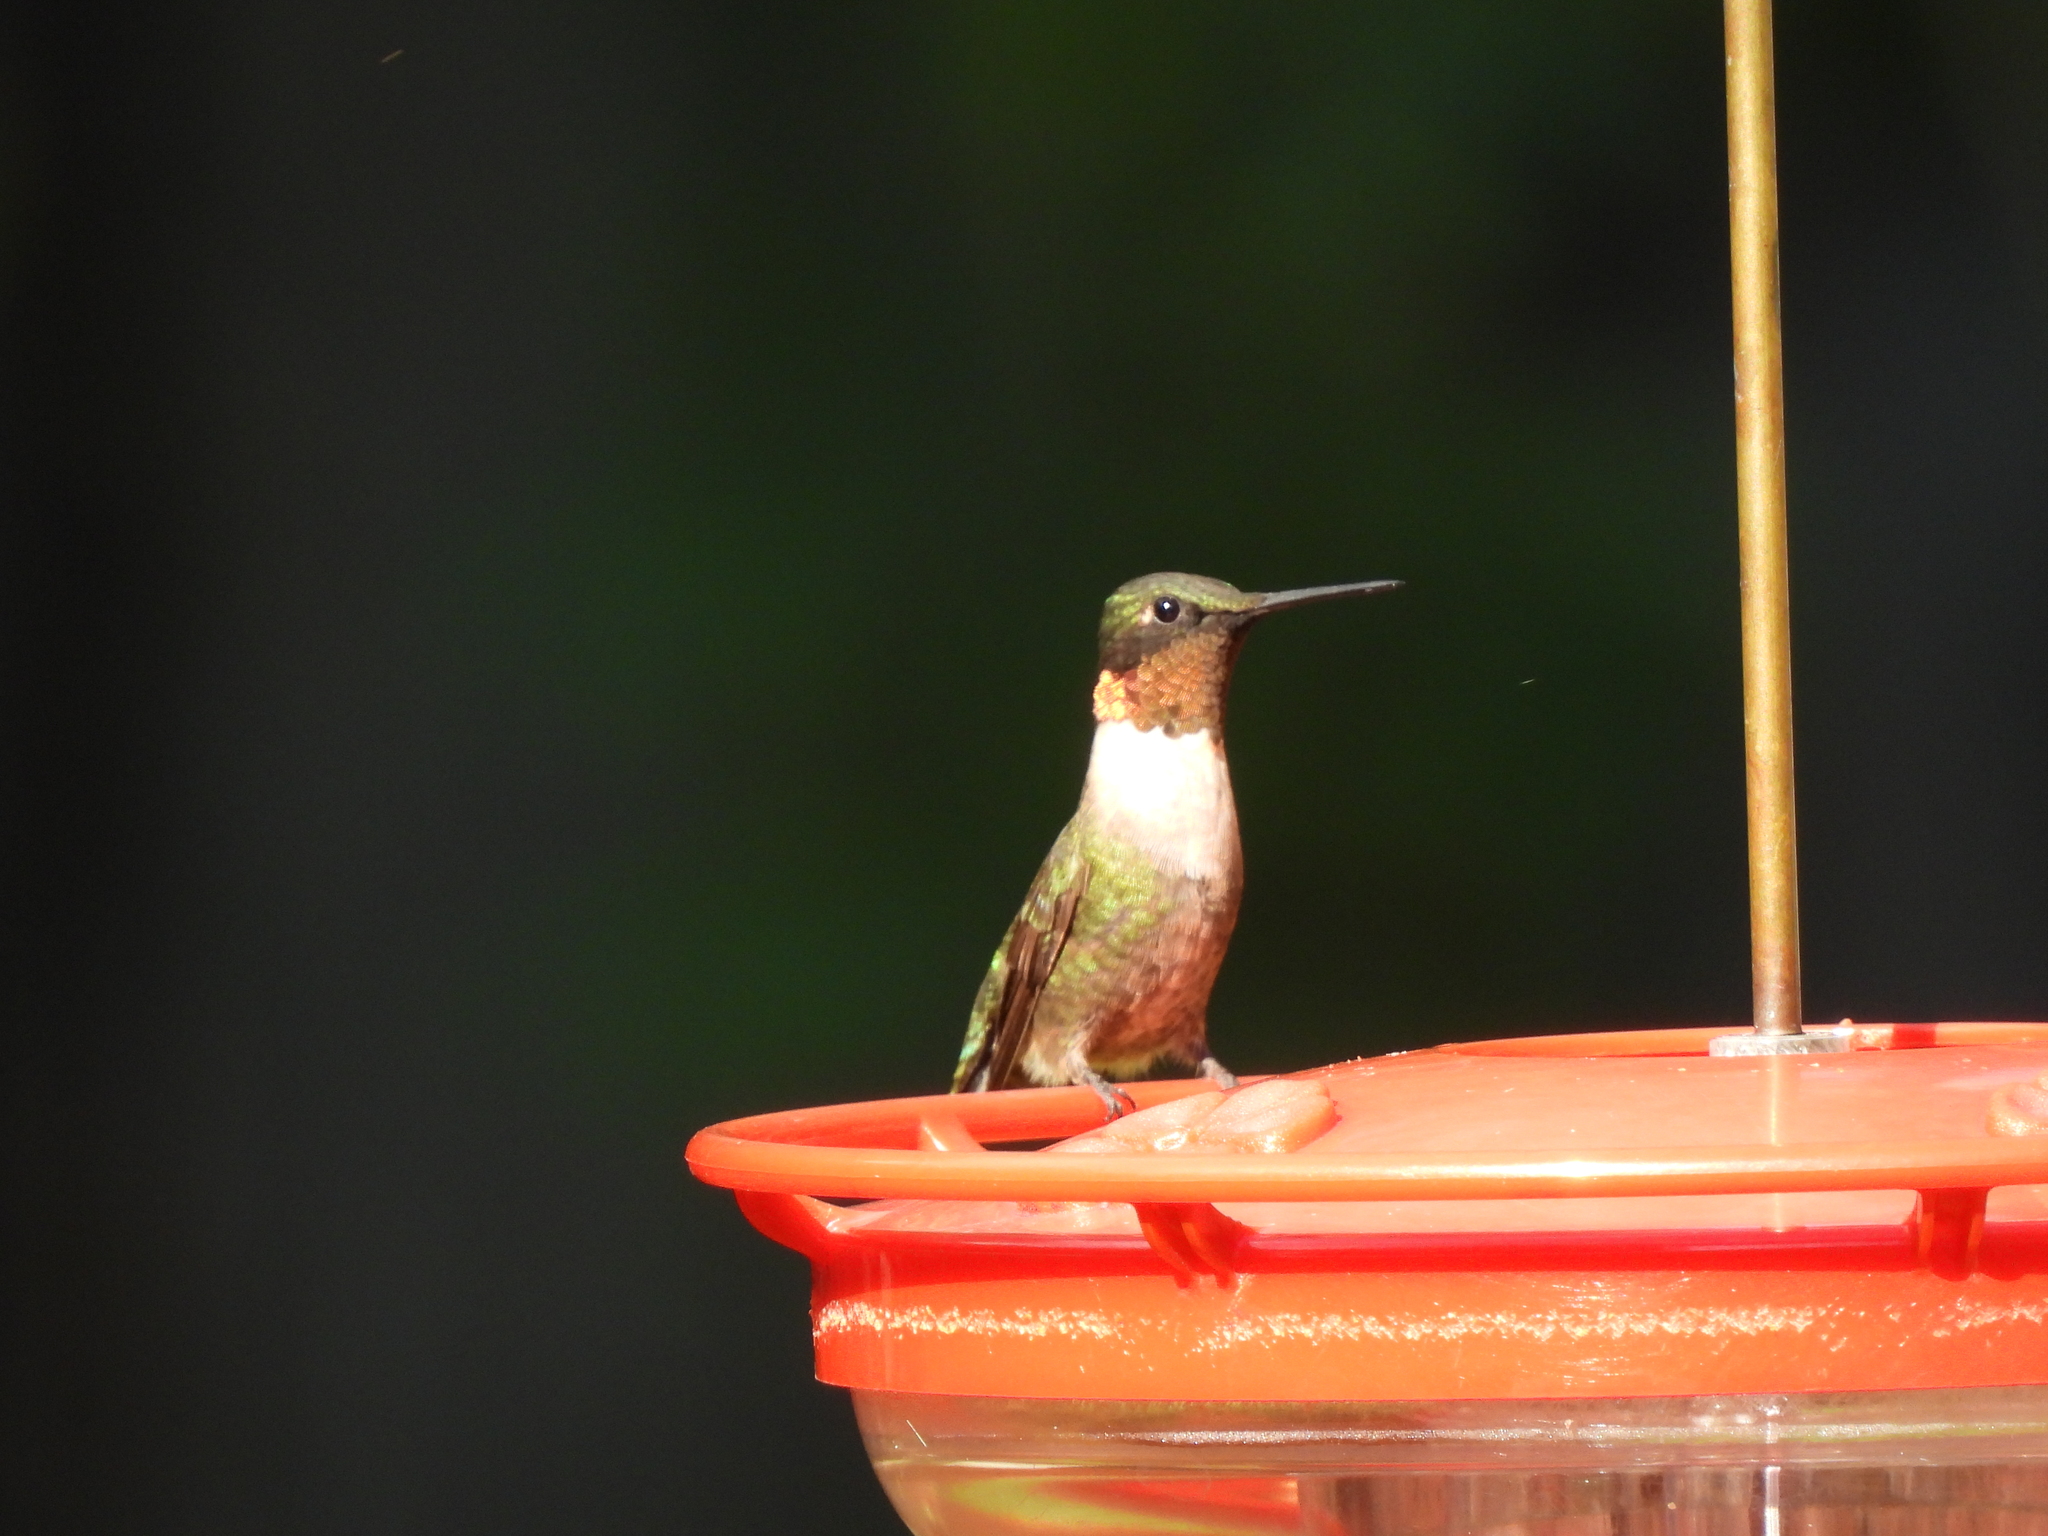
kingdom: Animalia
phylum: Chordata
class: Aves
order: Apodiformes
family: Trochilidae
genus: Archilochus
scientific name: Archilochus colubris
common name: Ruby-throated hummingbird
